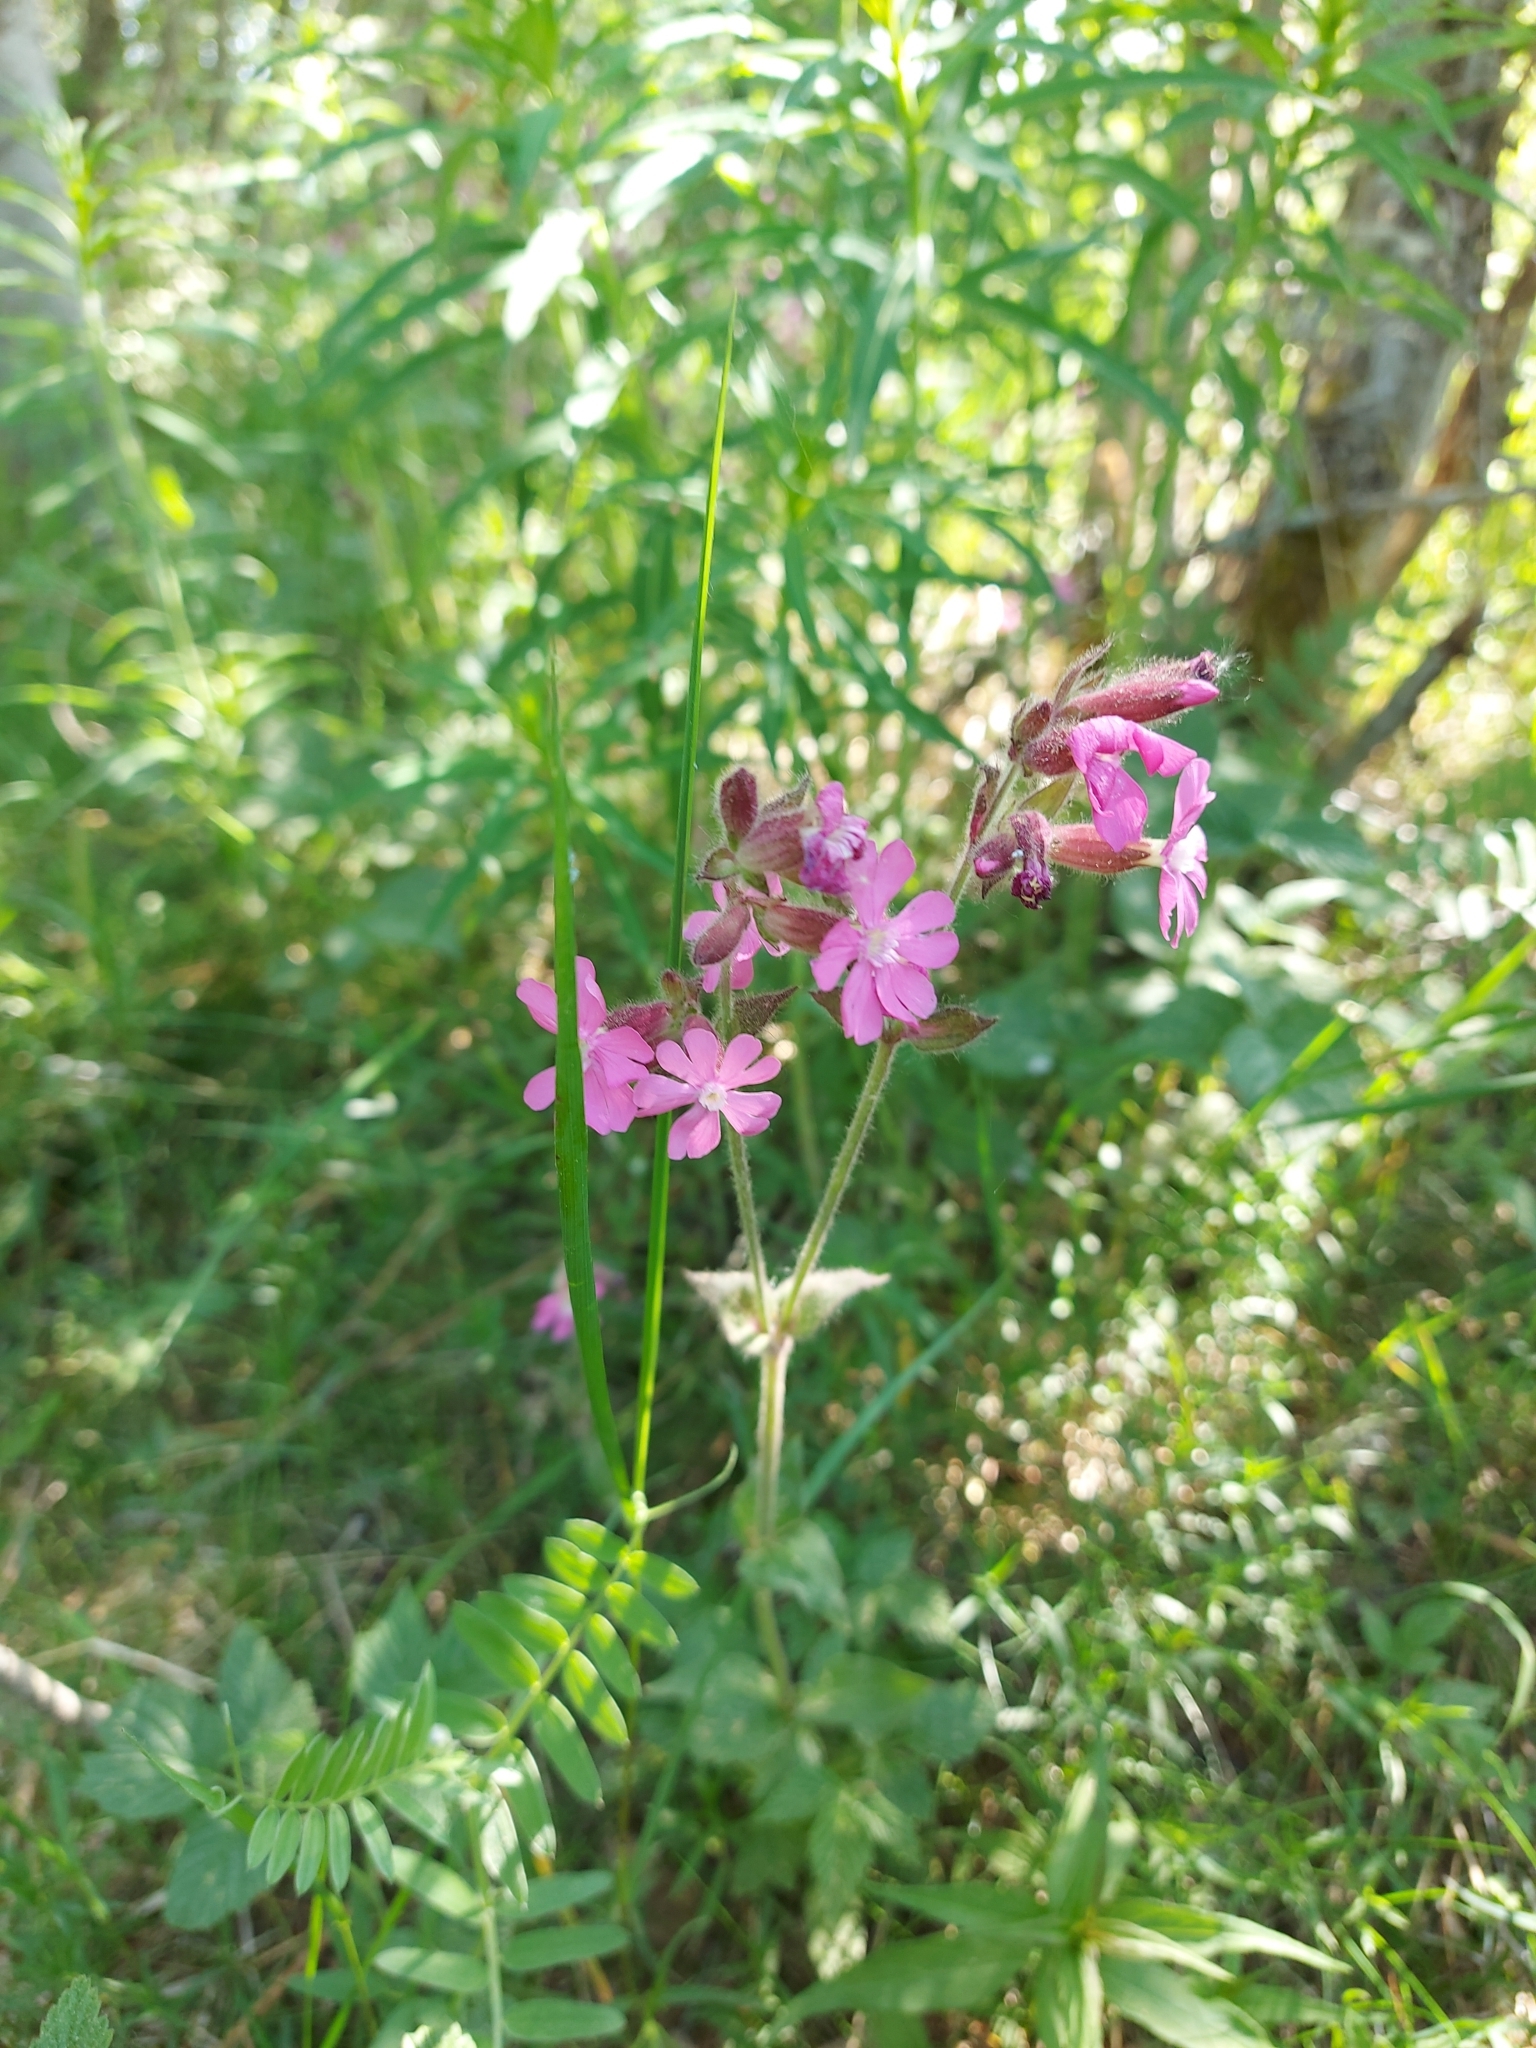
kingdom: Plantae
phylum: Tracheophyta
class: Magnoliopsida
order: Caryophyllales
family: Caryophyllaceae
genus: Silene
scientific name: Silene dioica
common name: Red campion
